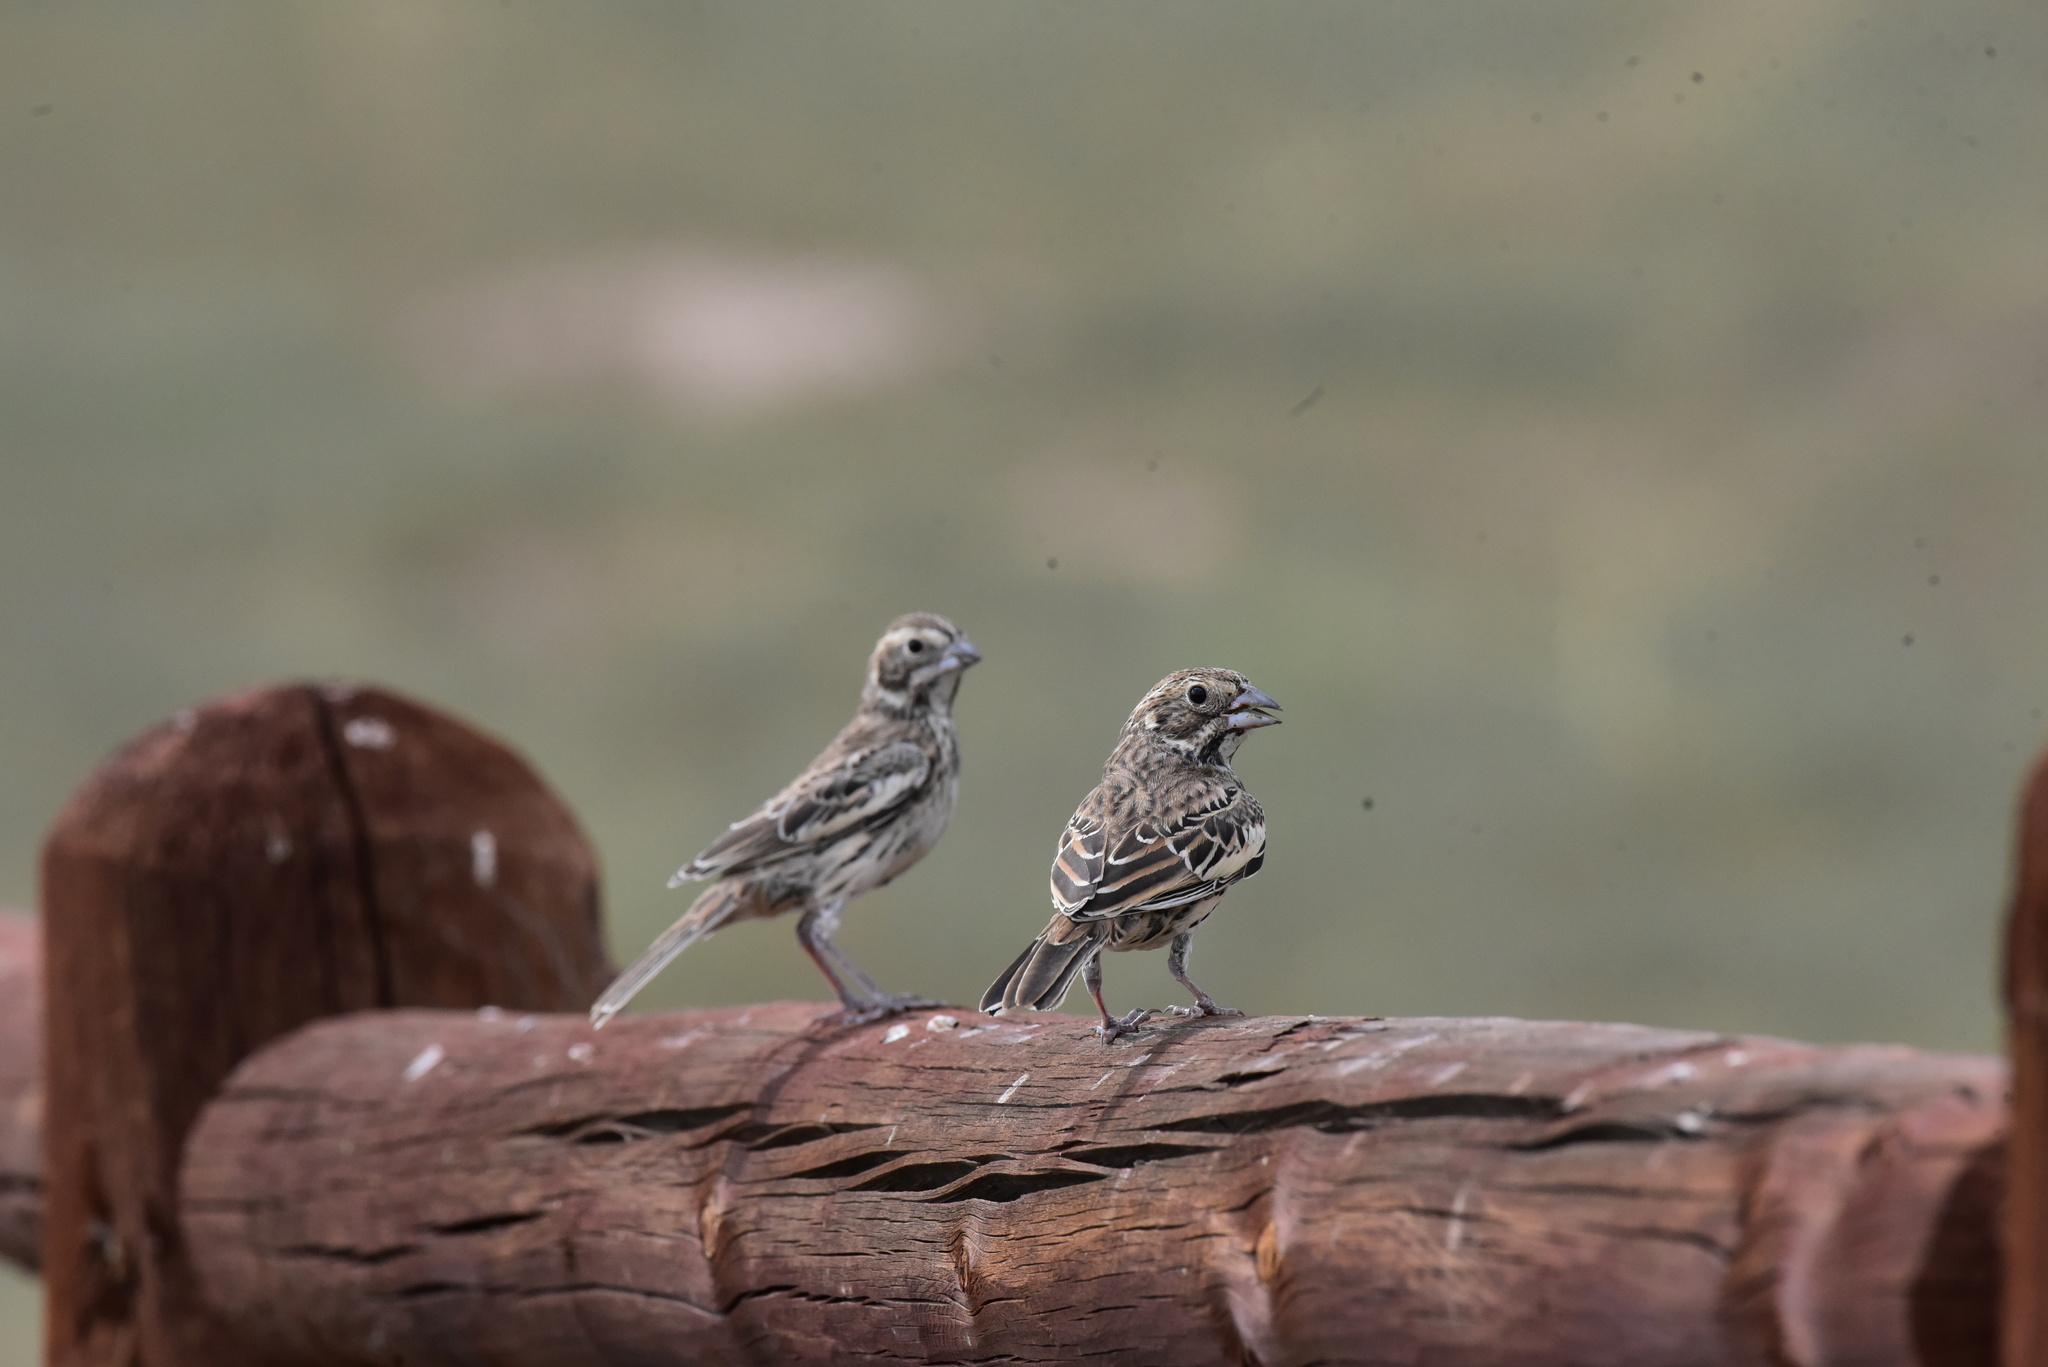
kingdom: Animalia
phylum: Chordata
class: Aves
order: Passeriformes
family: Passerellidae
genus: Calamospiza
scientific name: Calamospiza melanocorys
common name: Lark bunting
